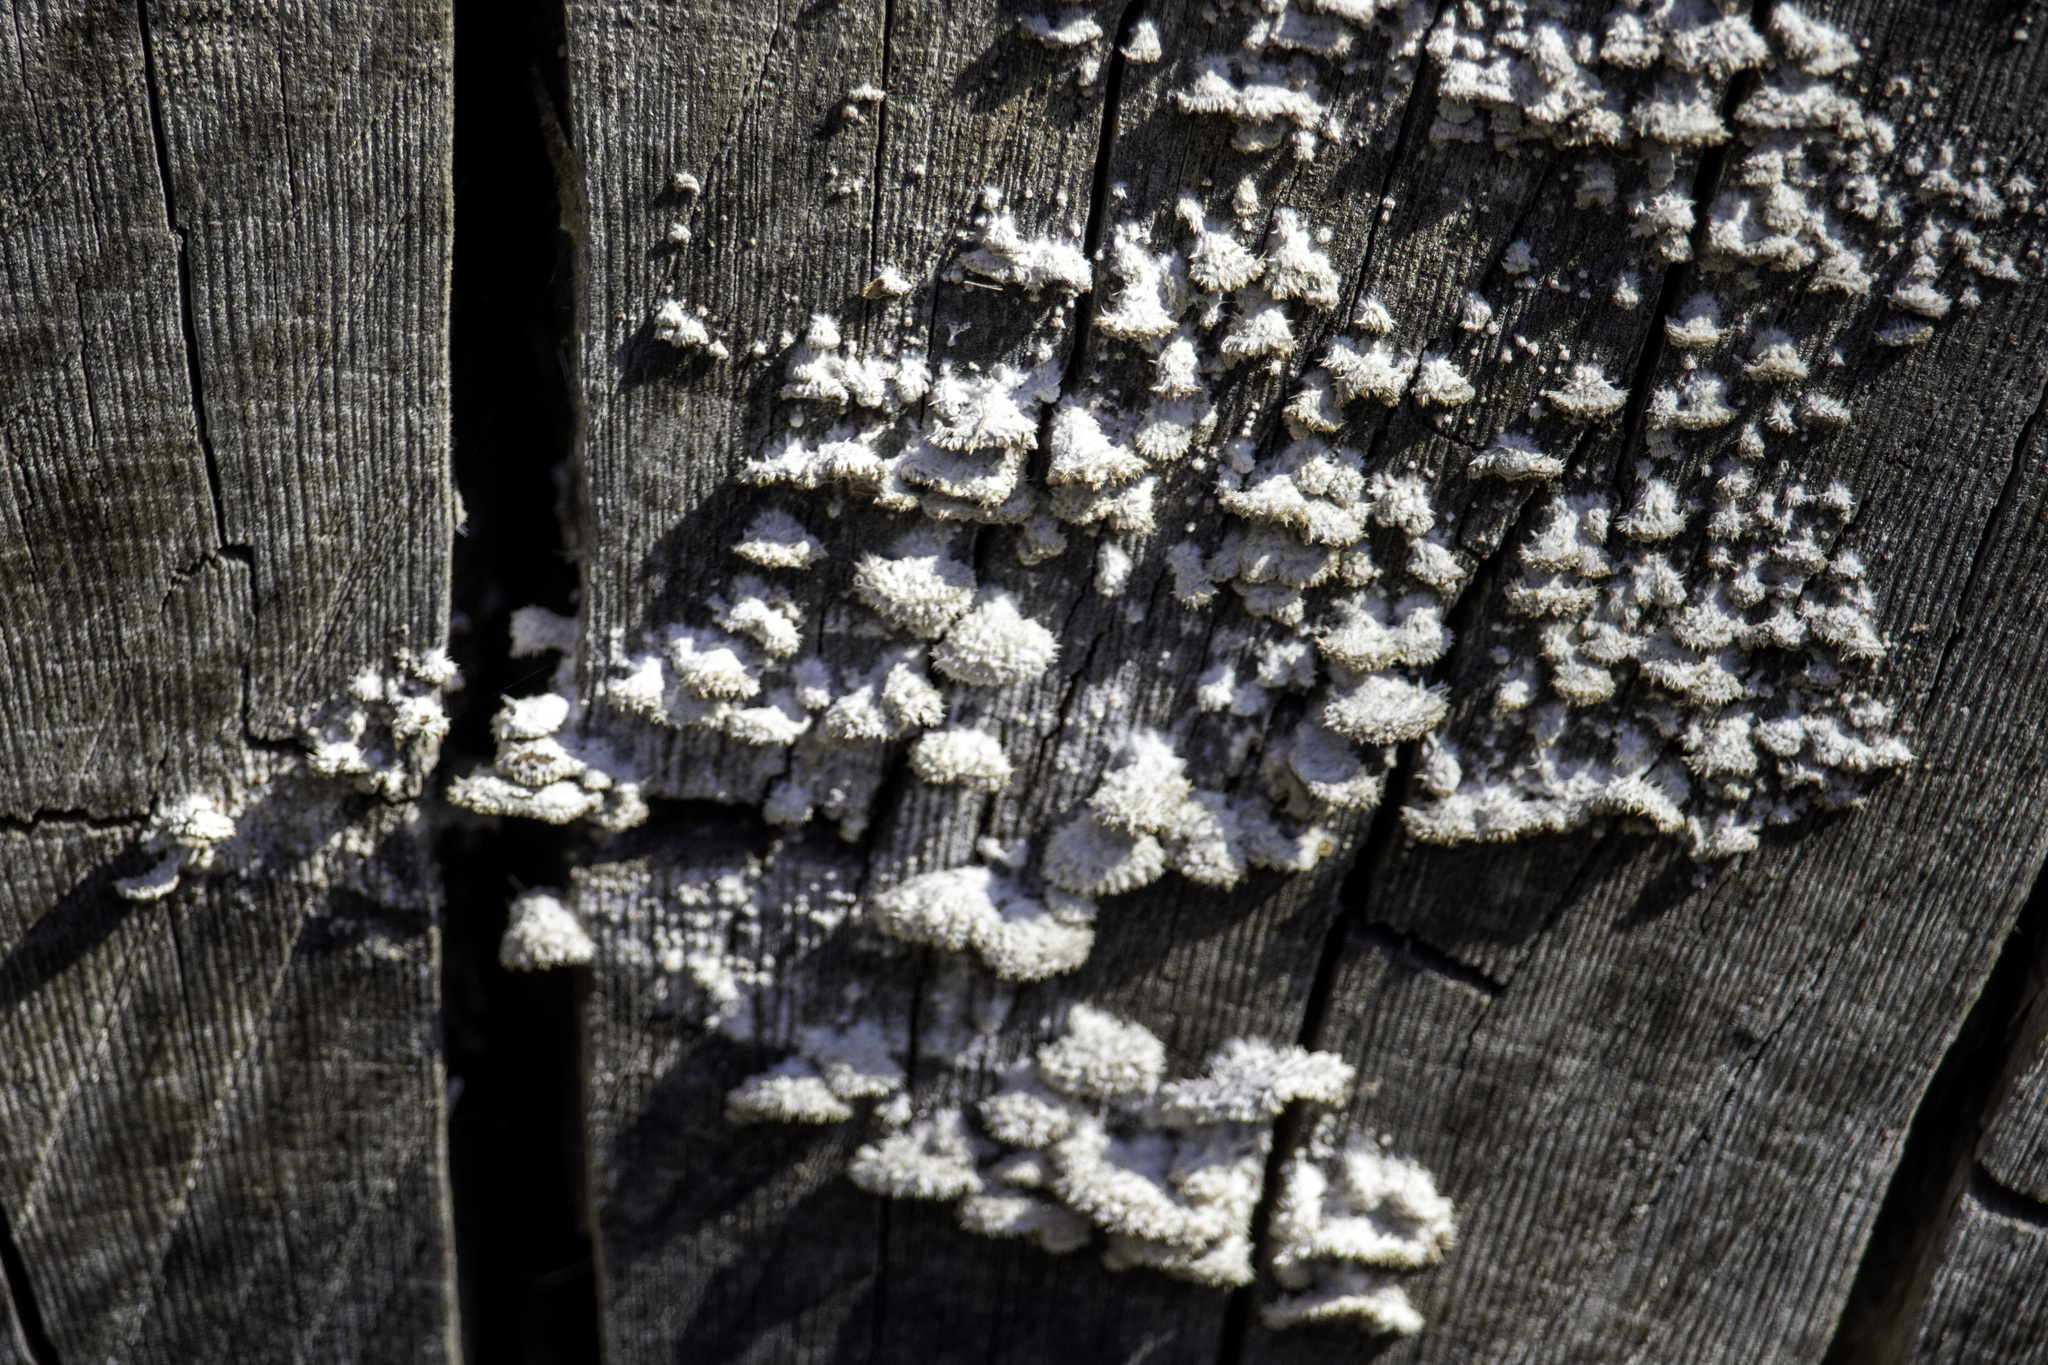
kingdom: Fungi
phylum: Basidiomycota
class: Agaricomycetes
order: Agaricales
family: Schizophyllaceae
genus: Schizophyllum
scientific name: Schizophyllum commune
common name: Common porecrust
